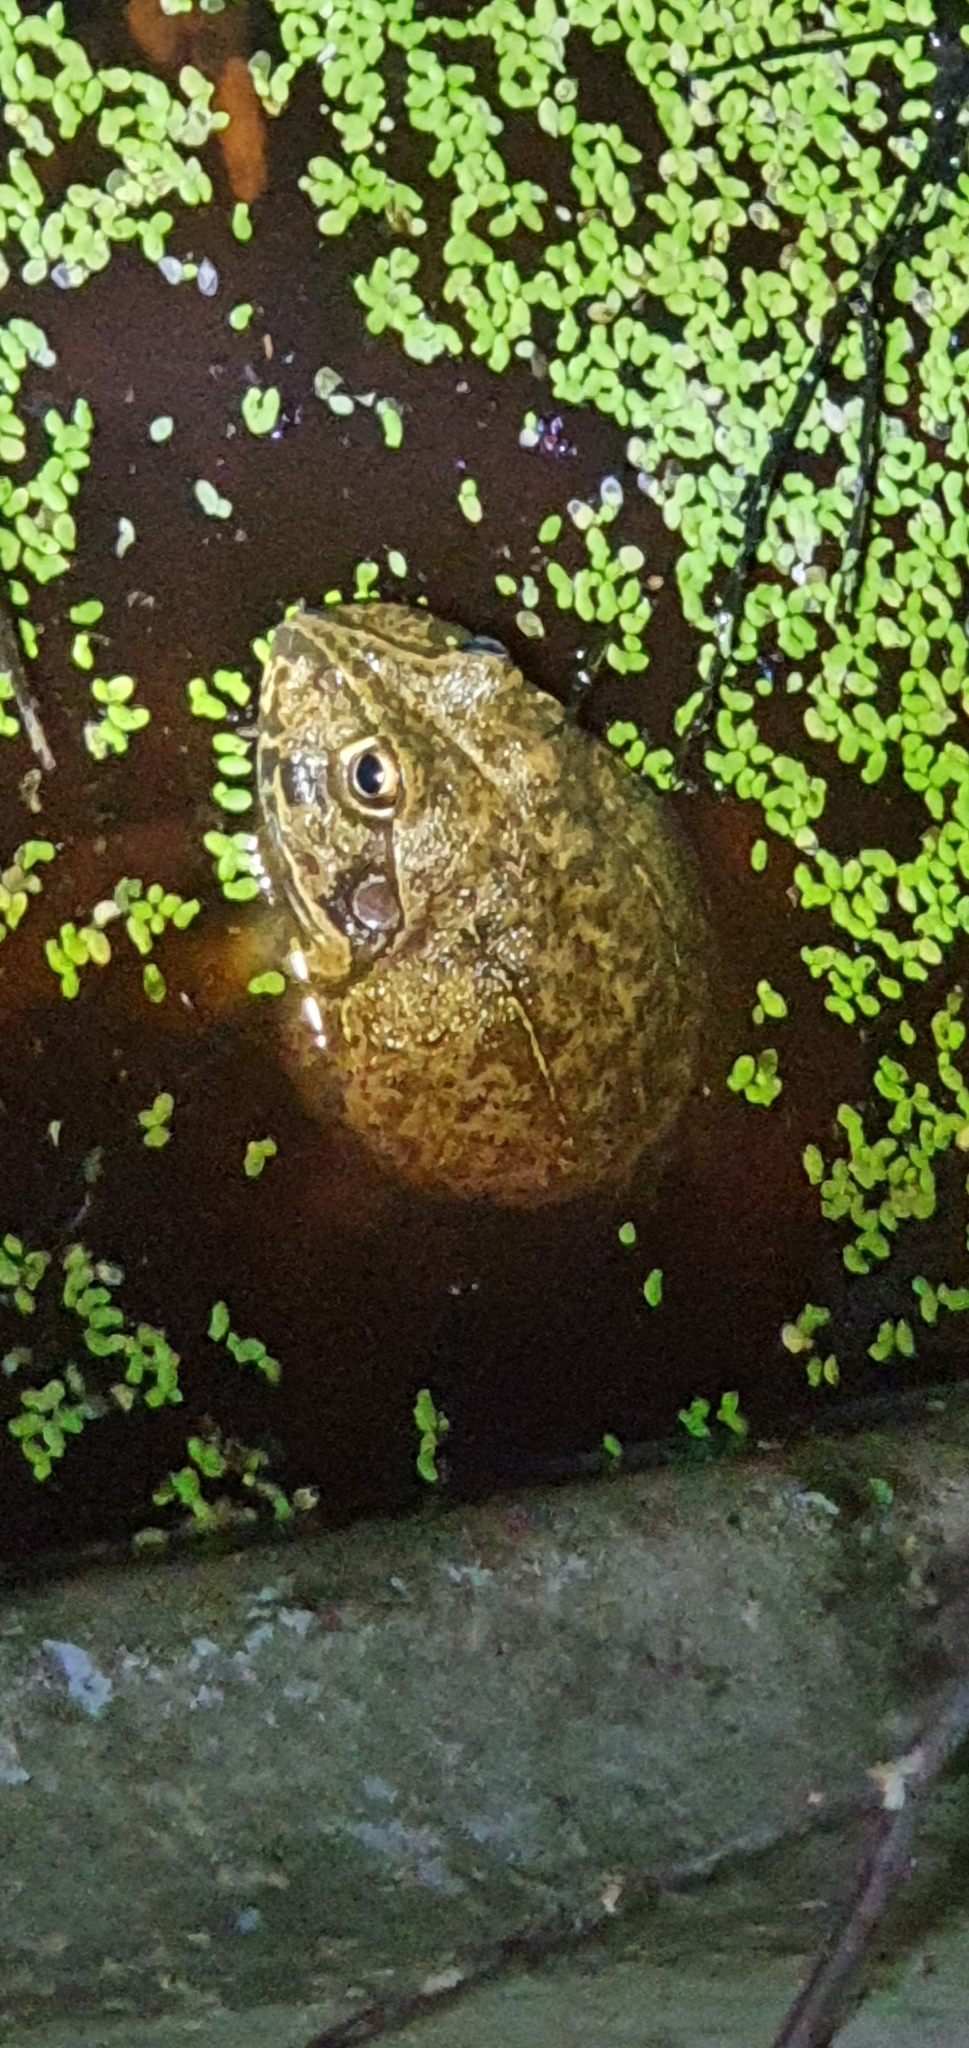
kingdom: Animalia
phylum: Chordata
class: Amphibia
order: Anura
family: Pelodryadidae
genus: Ranoidea
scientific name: Ranoidea novaehollandiae
